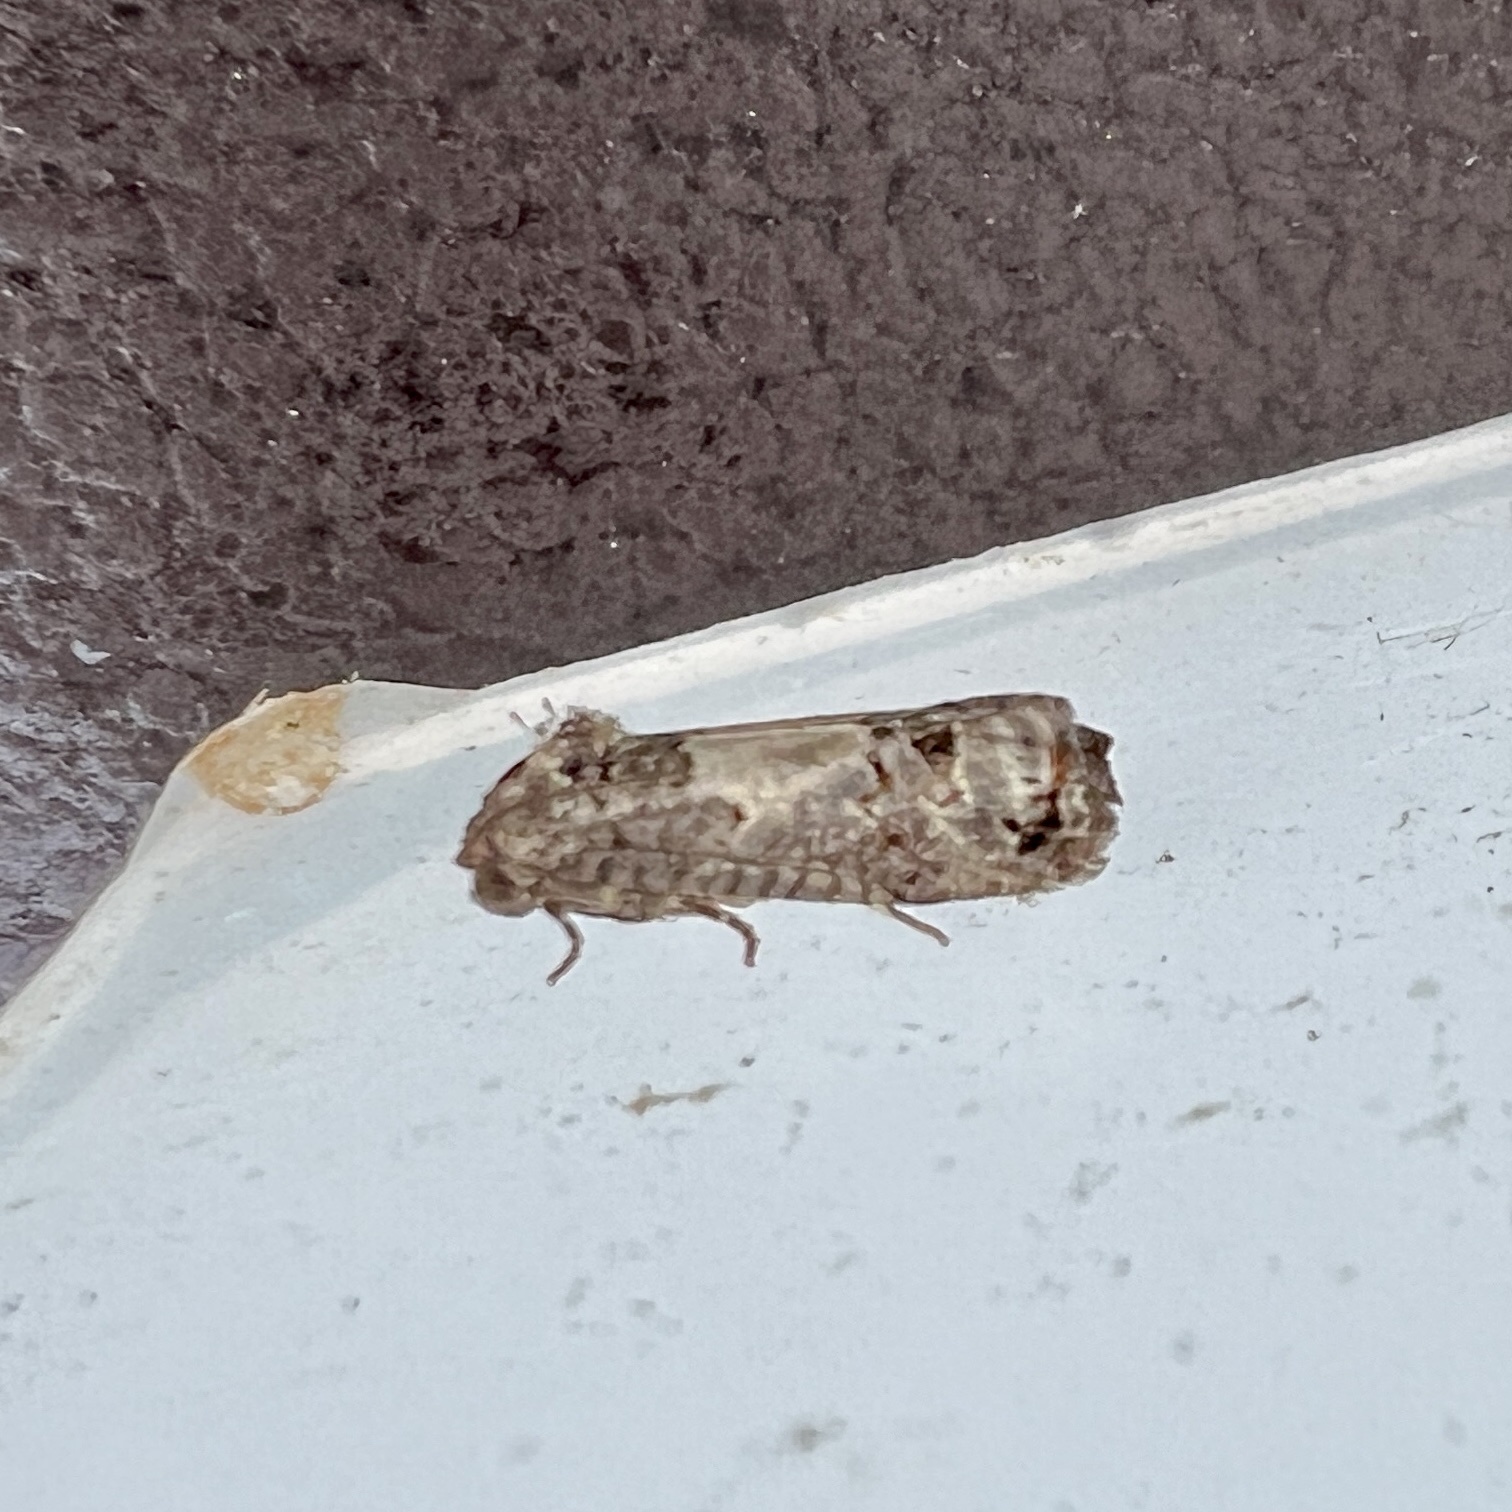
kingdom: Animalia
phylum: Arthropoda
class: Insecta
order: Lepidoptera
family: Tortricidae
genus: Epiblema
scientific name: Epiblema carolinana
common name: Gray-blotched epiblema moth
